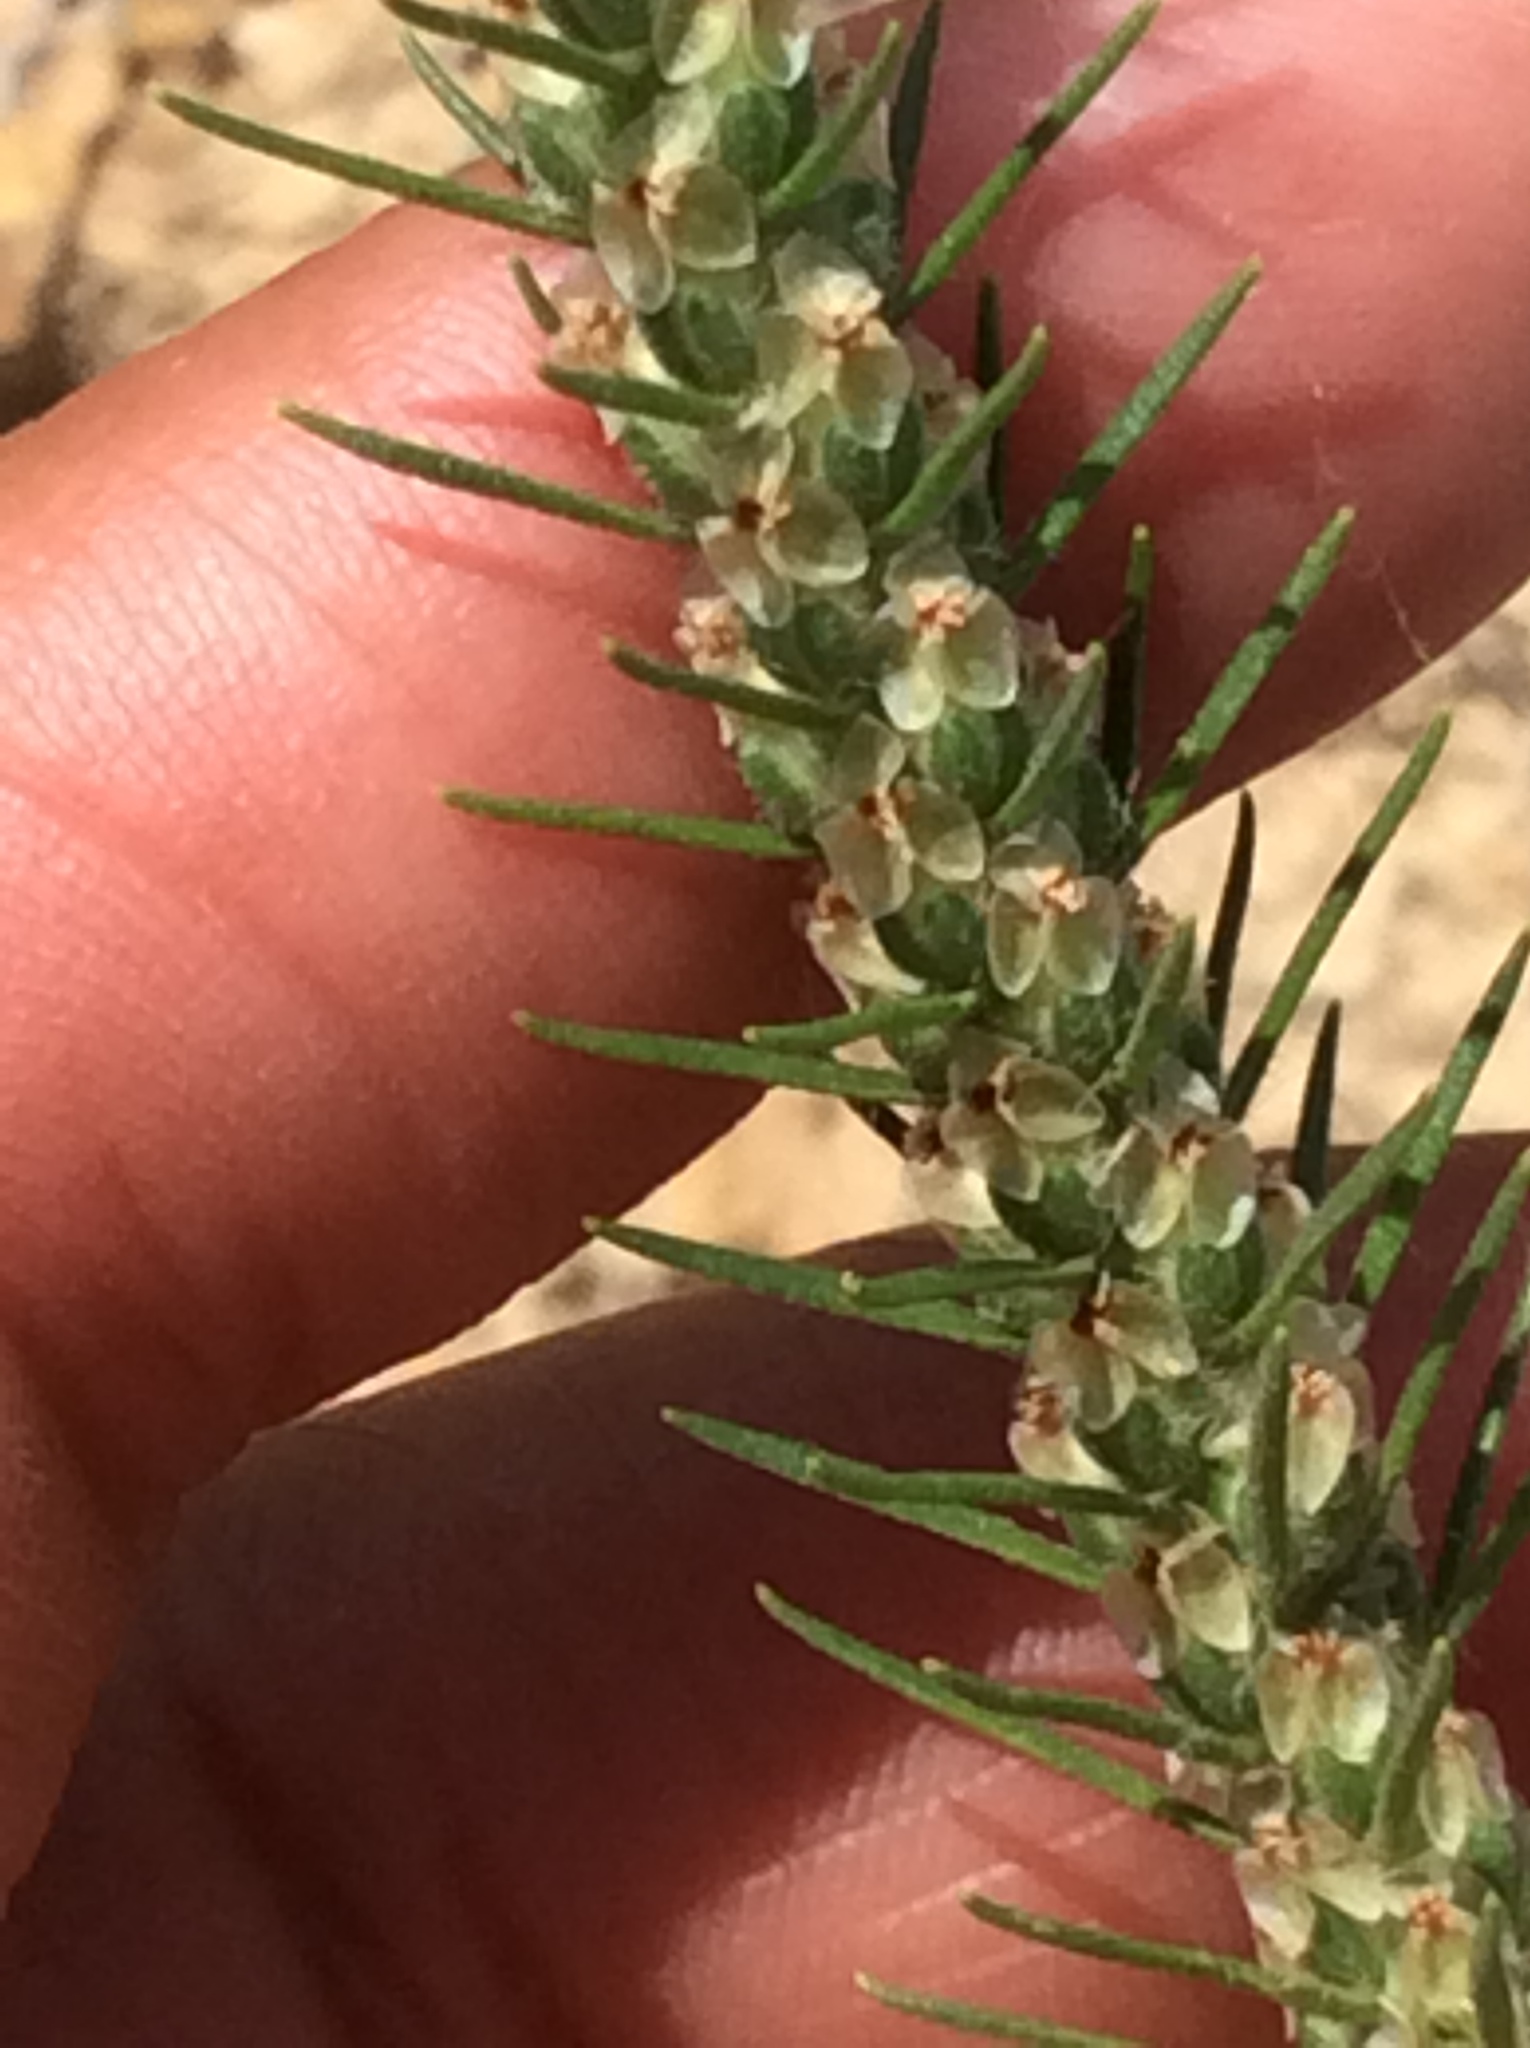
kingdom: Plantae
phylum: Tracheophyta
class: Magnoliopsida
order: Lamiales
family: Plantaginaceae
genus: Plantago
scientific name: Plantago aristata
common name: Bracted plantain
